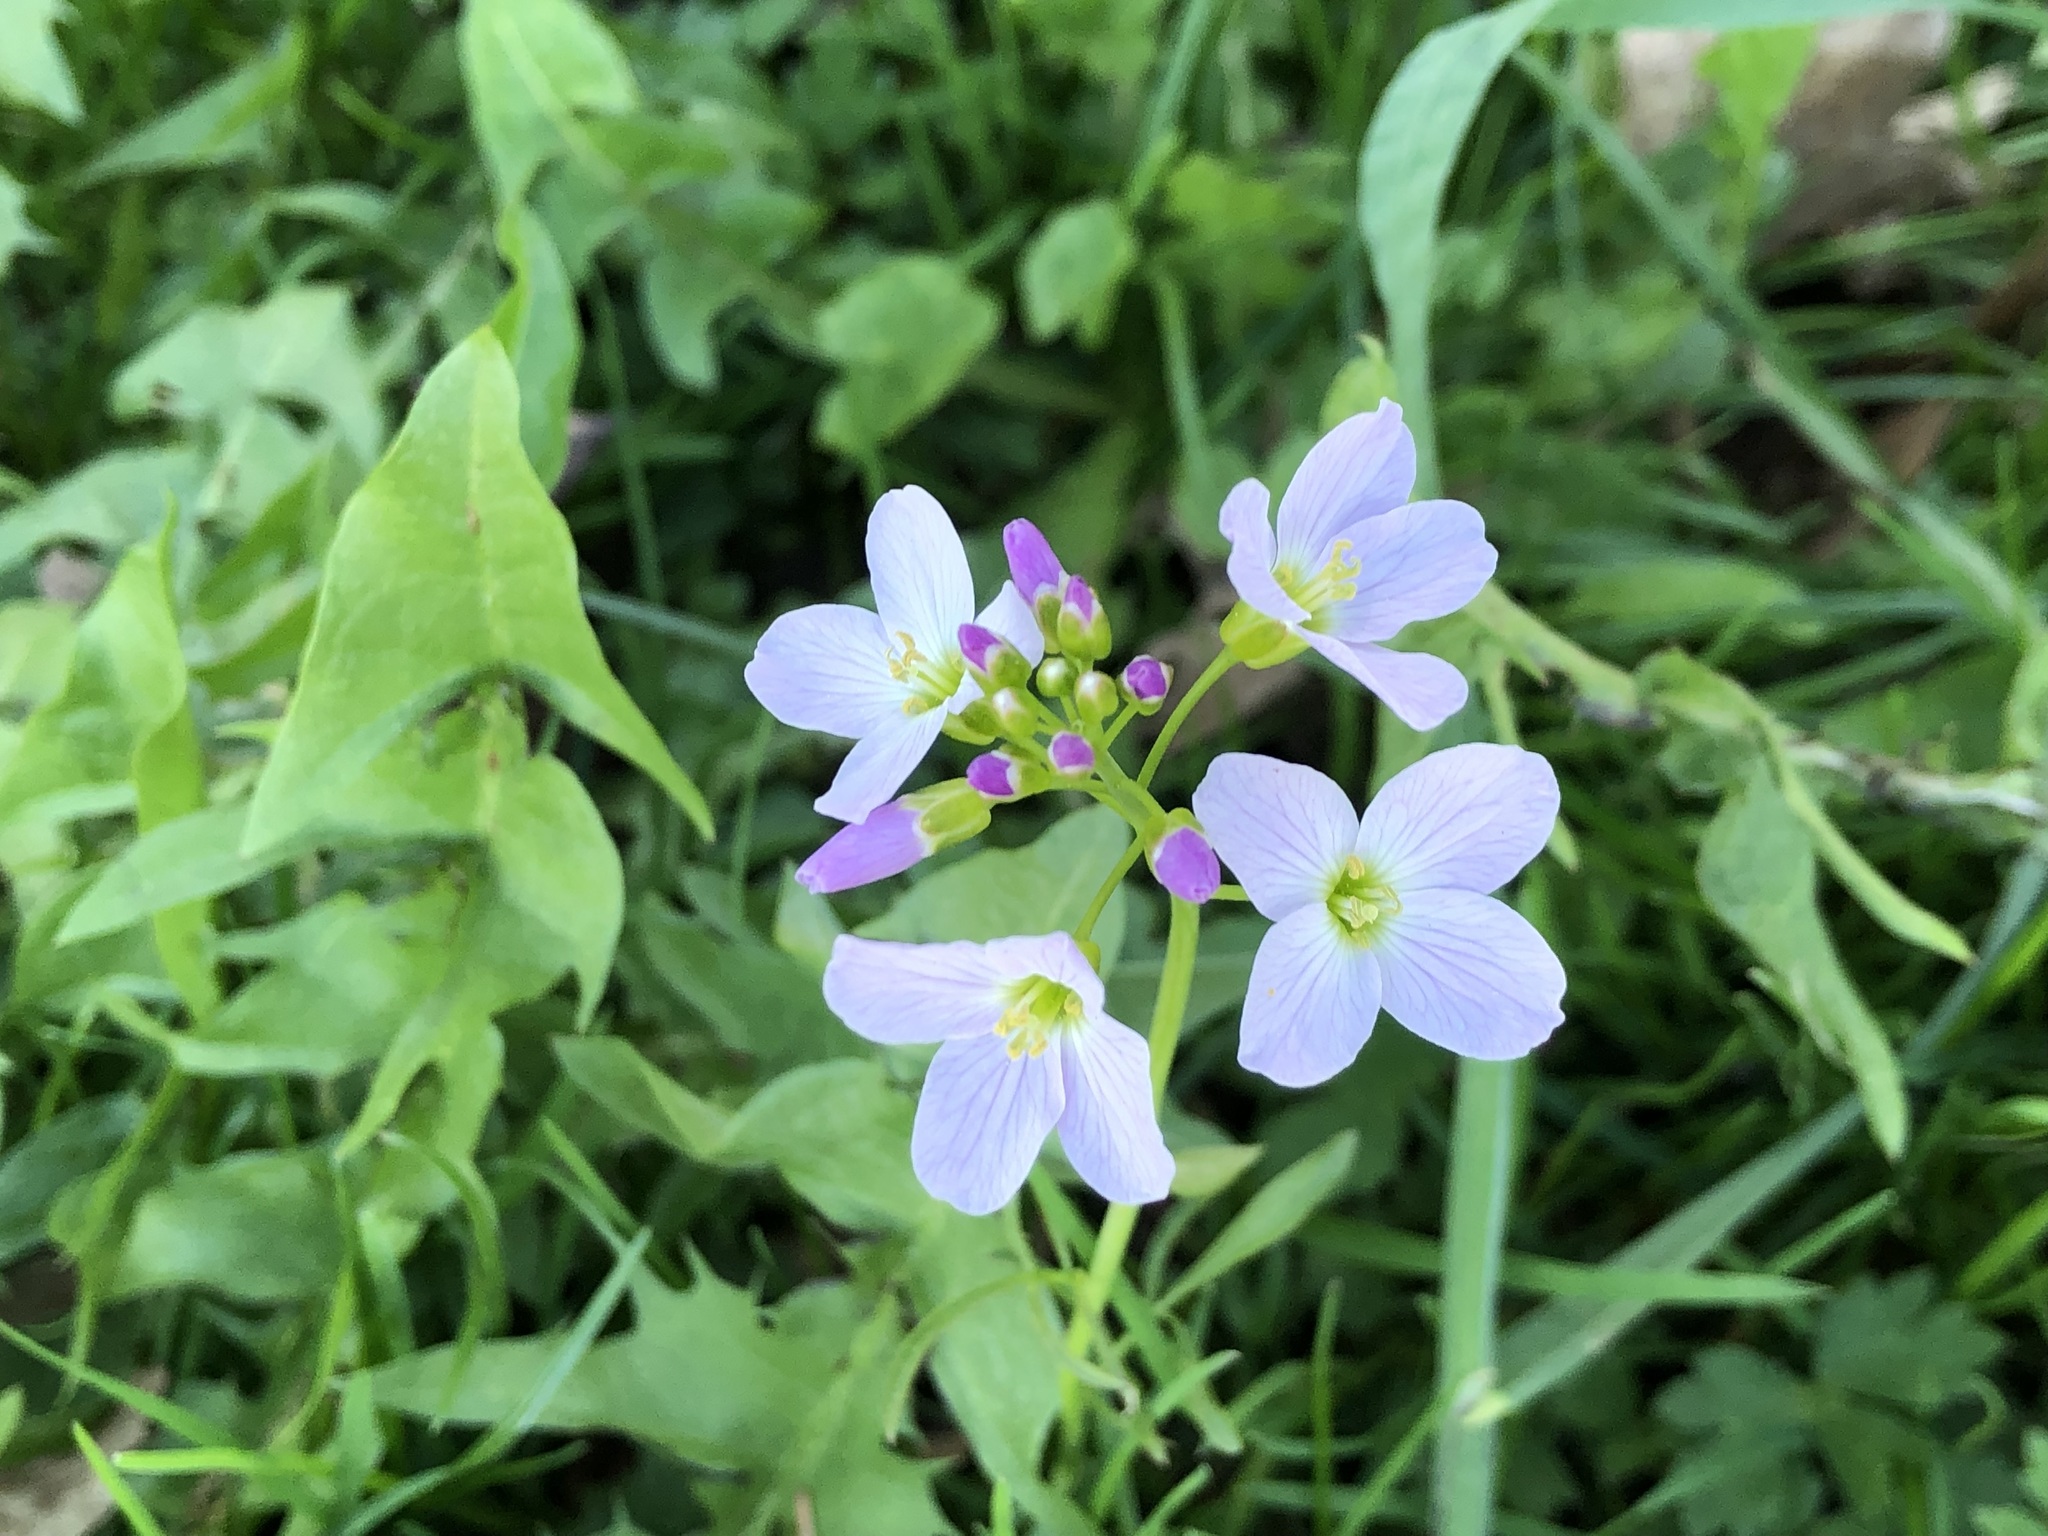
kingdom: Plantae
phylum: Tracheophyta
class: Magnoliopsida
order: Brassicales
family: Brassicaceae
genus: Cardamine
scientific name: Cardamine pratensis
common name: Cuckoo flower
